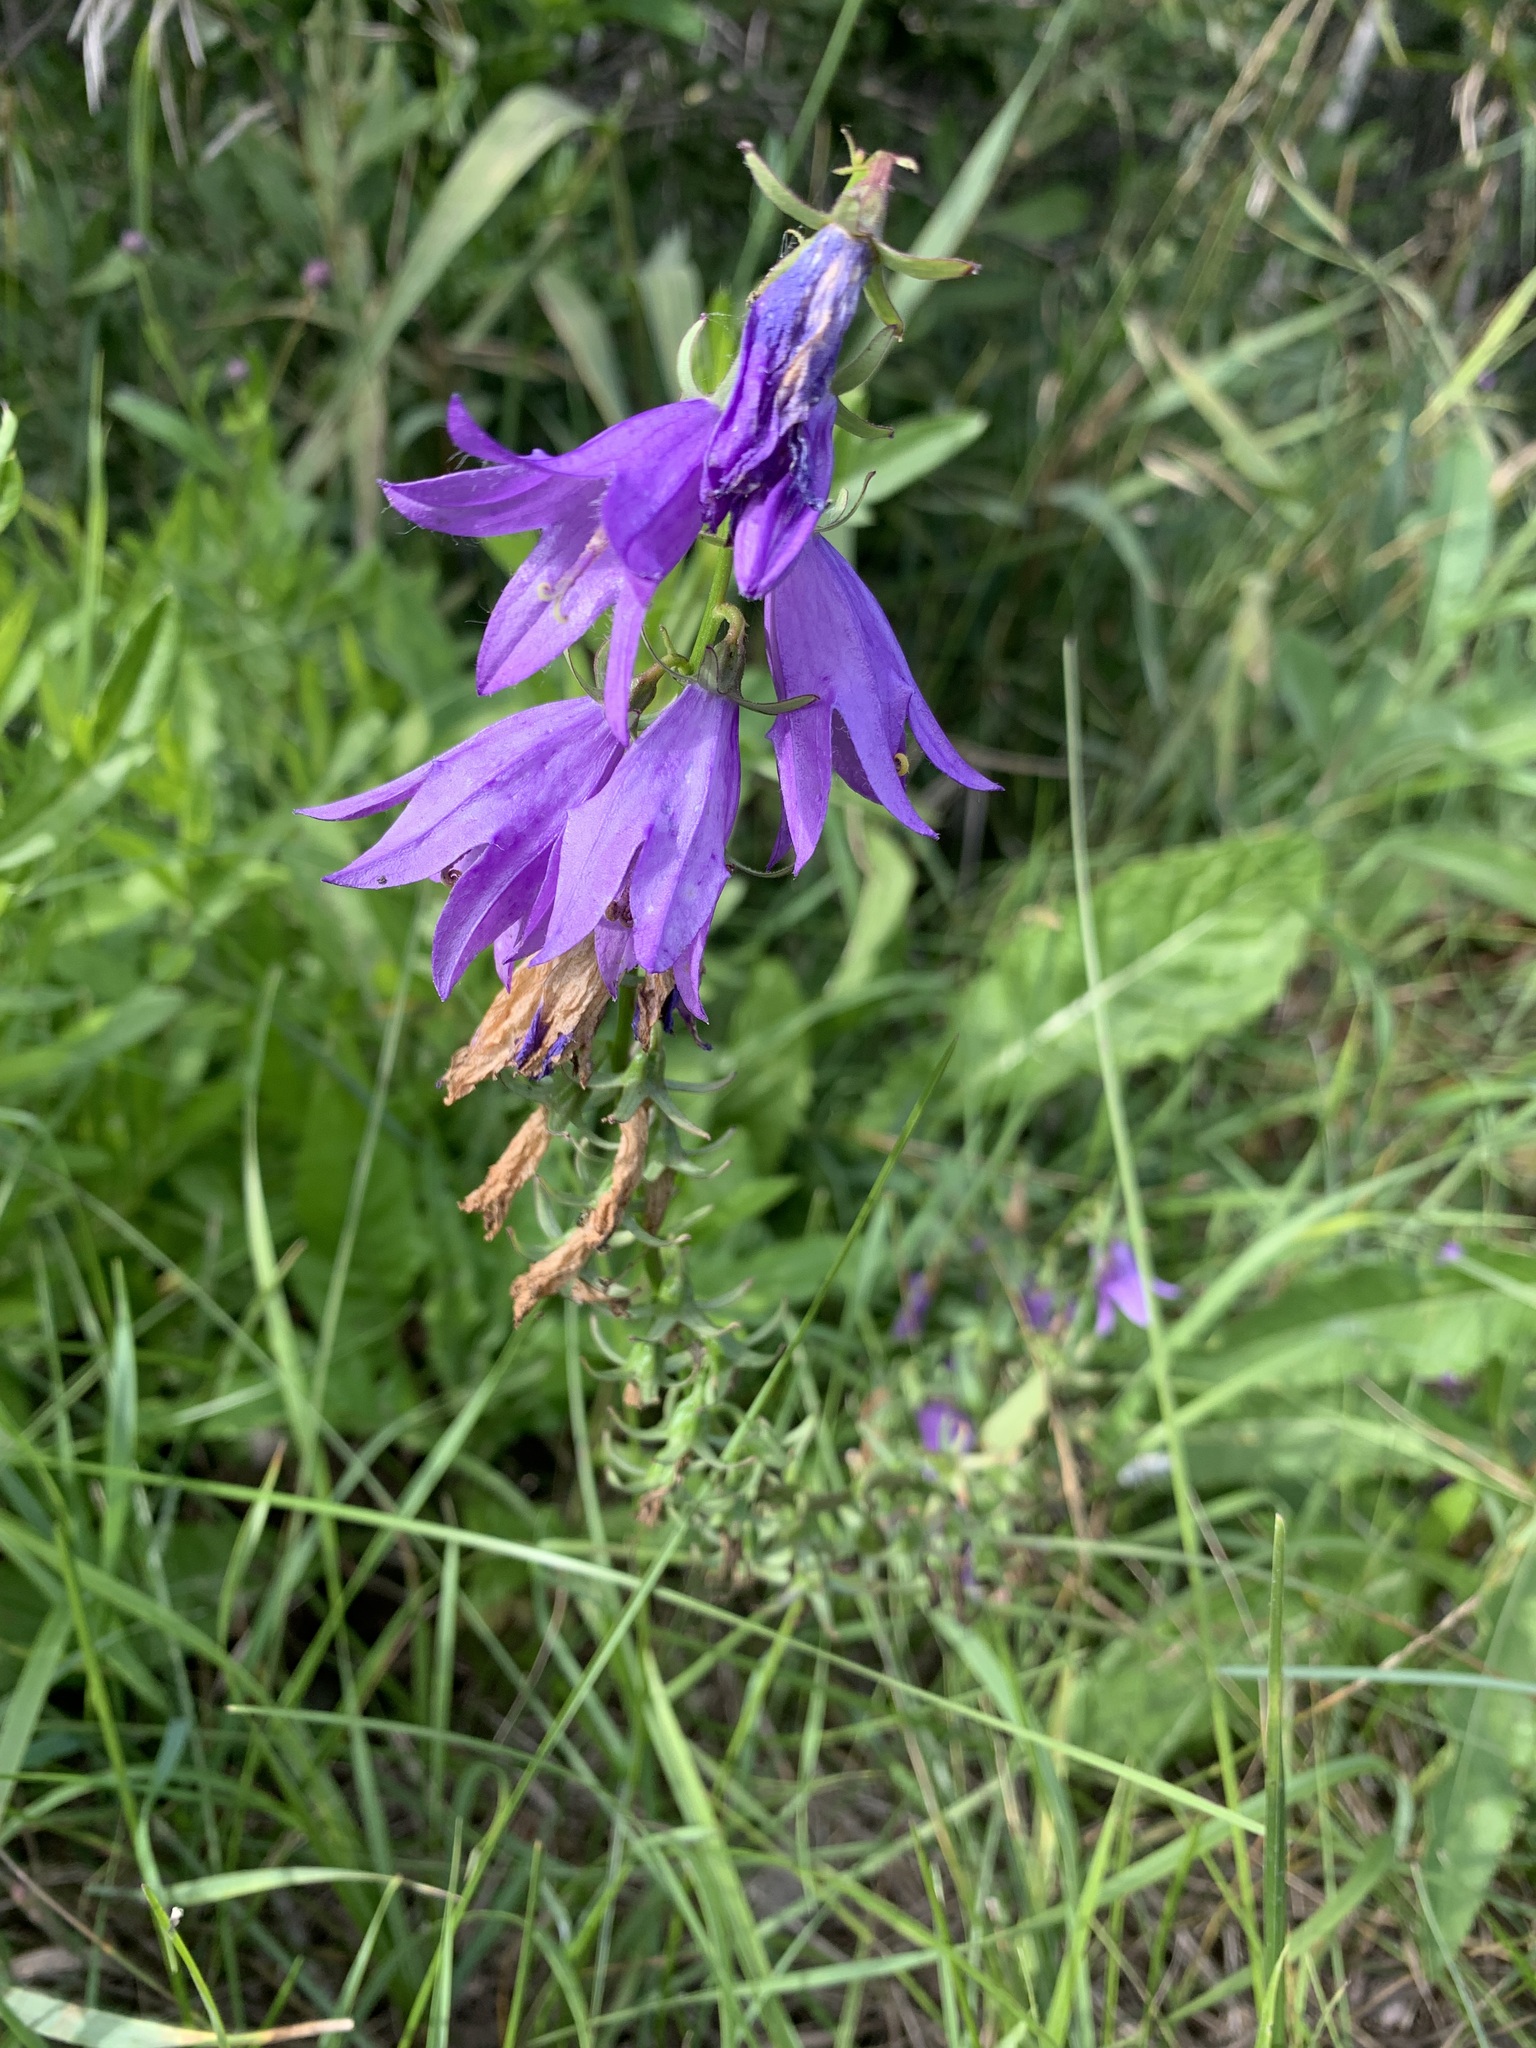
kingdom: Plantae
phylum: Tracheophyta
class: Magnoliopsida
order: Asterales
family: Campanulaceae
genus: Campanula
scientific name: Campanula rapunculoides
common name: Creeping bellflower
